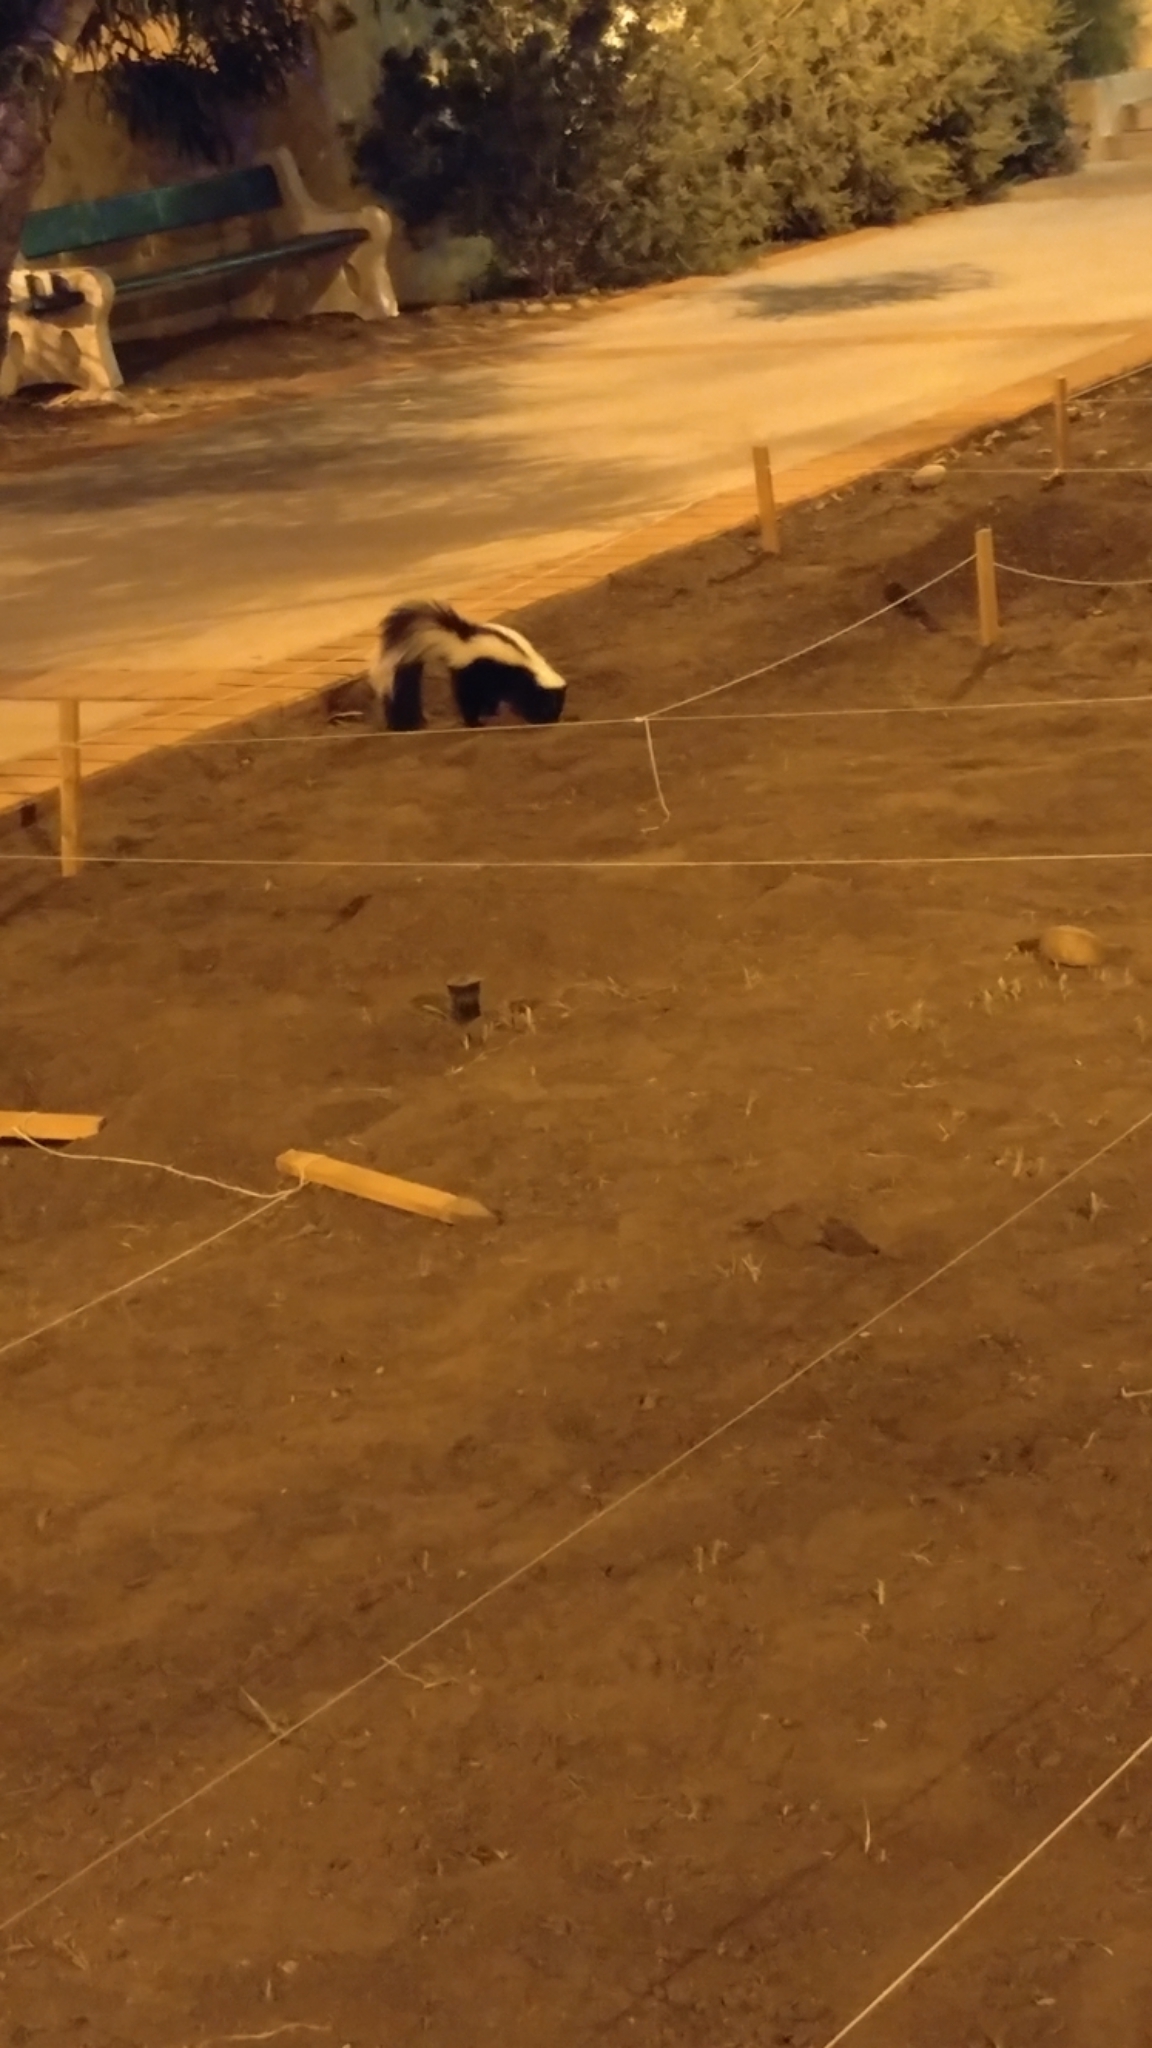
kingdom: Animalia
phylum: Chordata
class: Mammalia
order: Carnivora
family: Mephitidae
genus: Mephitis
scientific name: Mephitis mephitis
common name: Striped skunk
